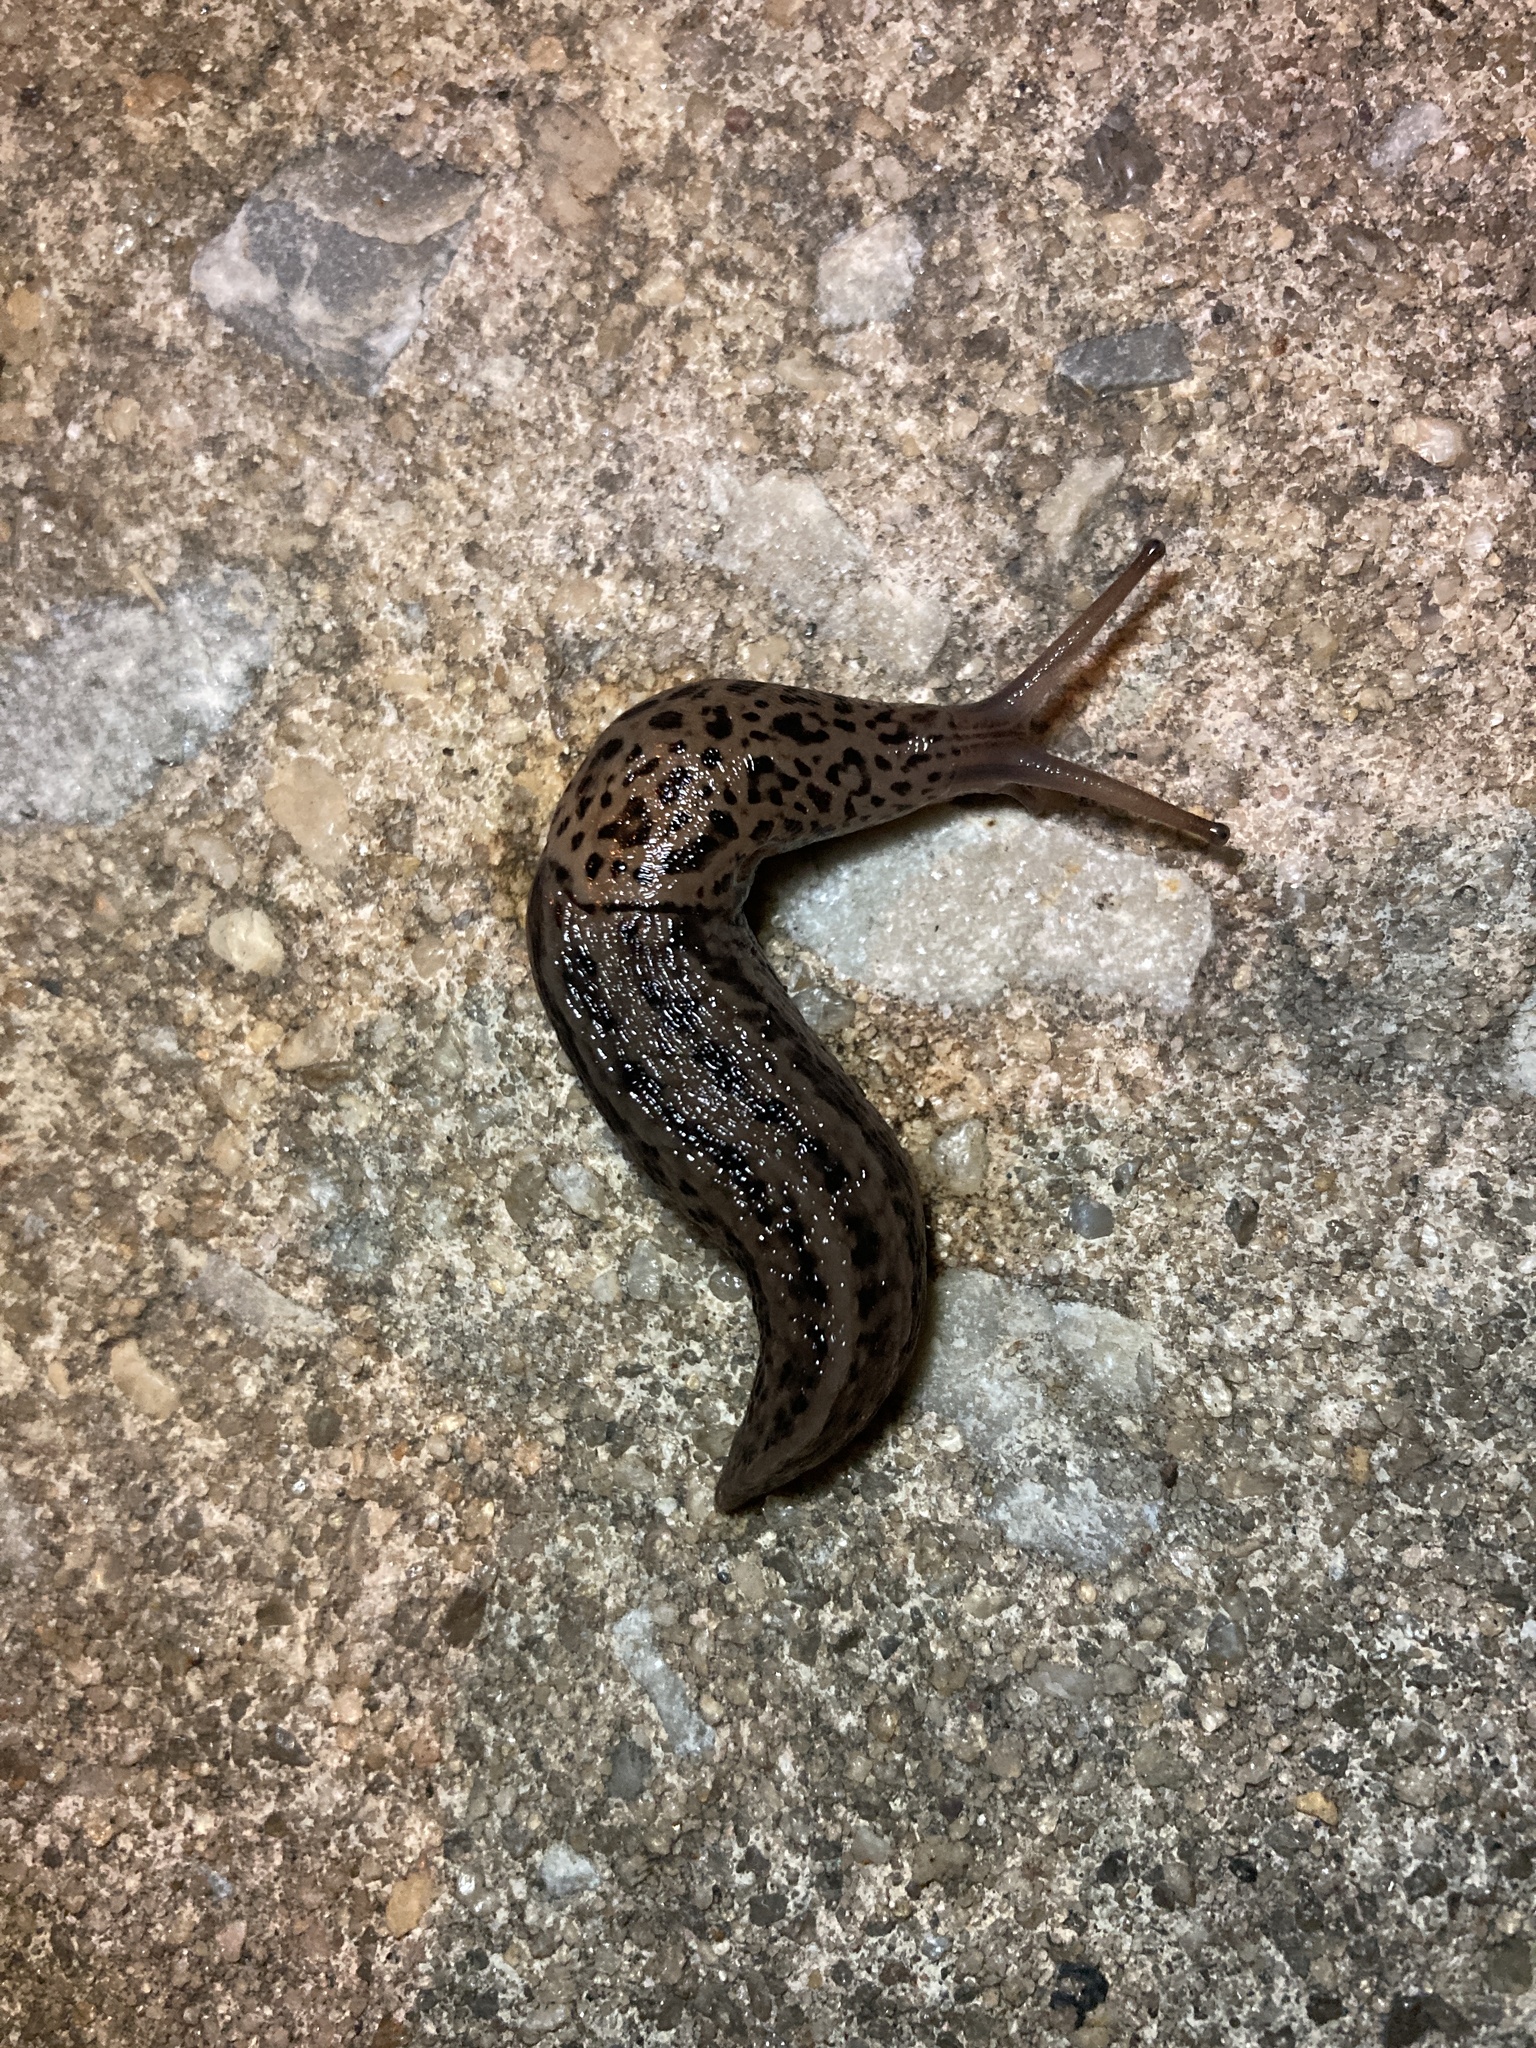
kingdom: Animalia
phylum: Mollusca
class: Gastropoda
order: Stylommatophora
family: Limacidae
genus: Limax
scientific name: Limax maximus
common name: Great grey slug
